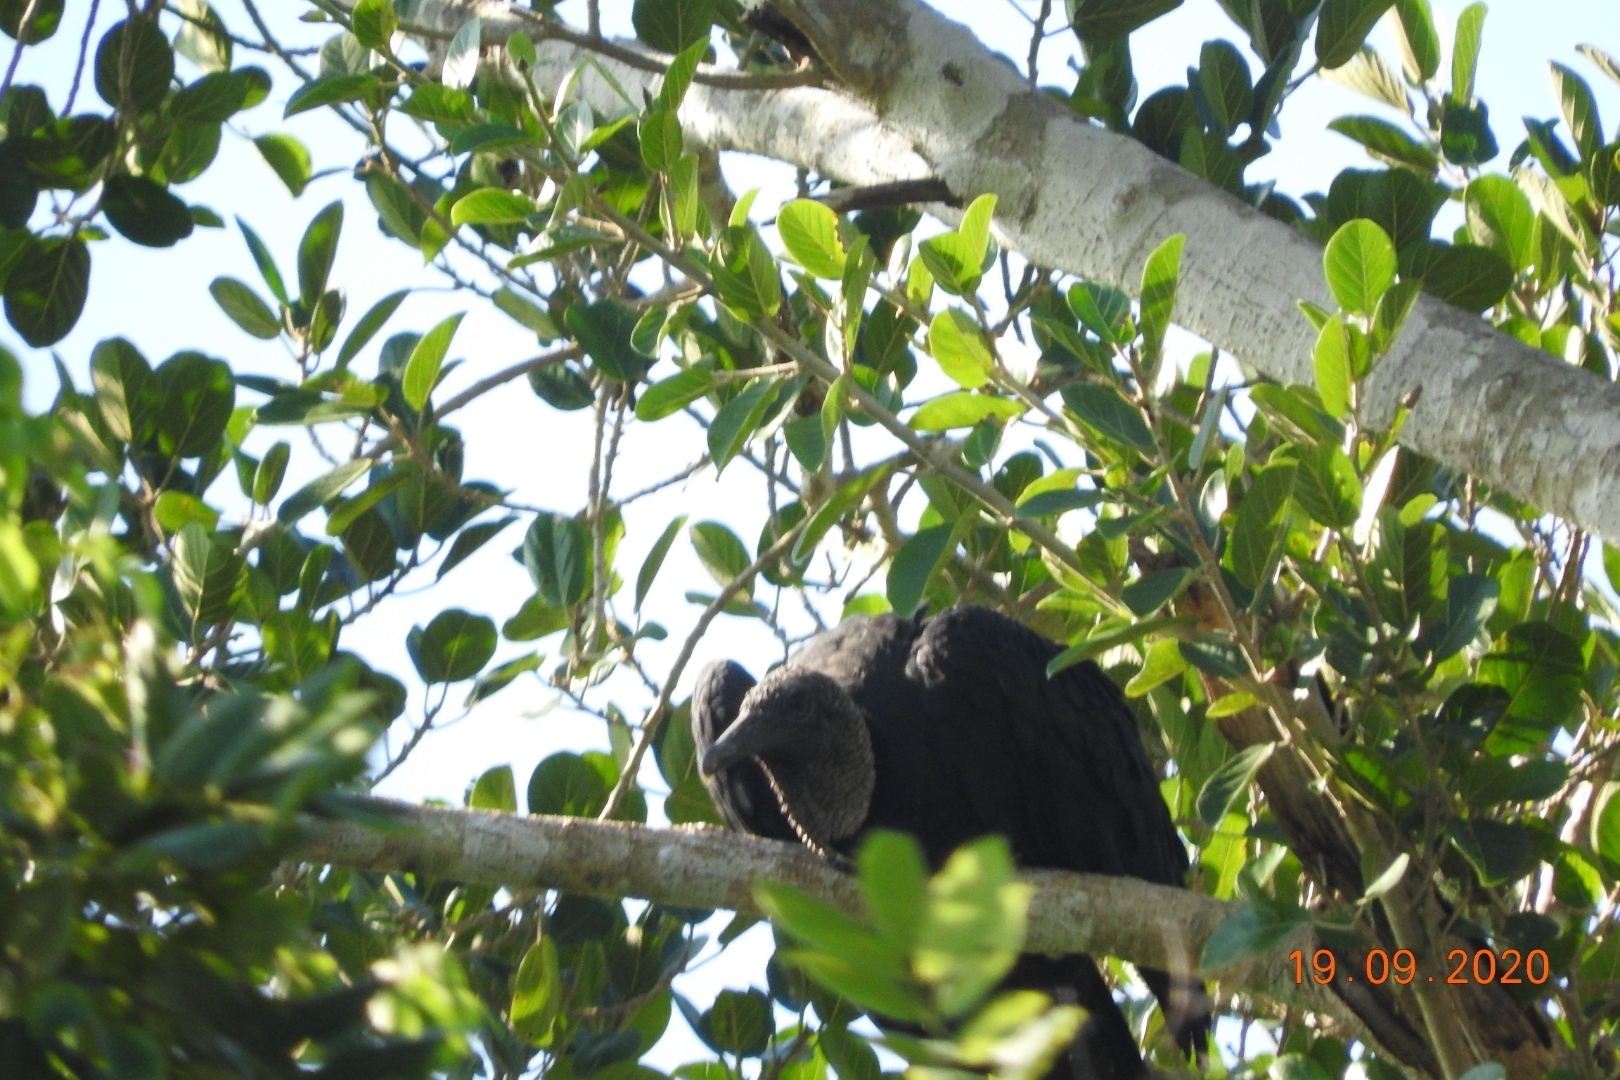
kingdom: Animalia
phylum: Chordata
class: Aves
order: Accipitriformes
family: Cathartidae
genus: Coragyps
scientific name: Coragyps atratus
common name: Black vulture
